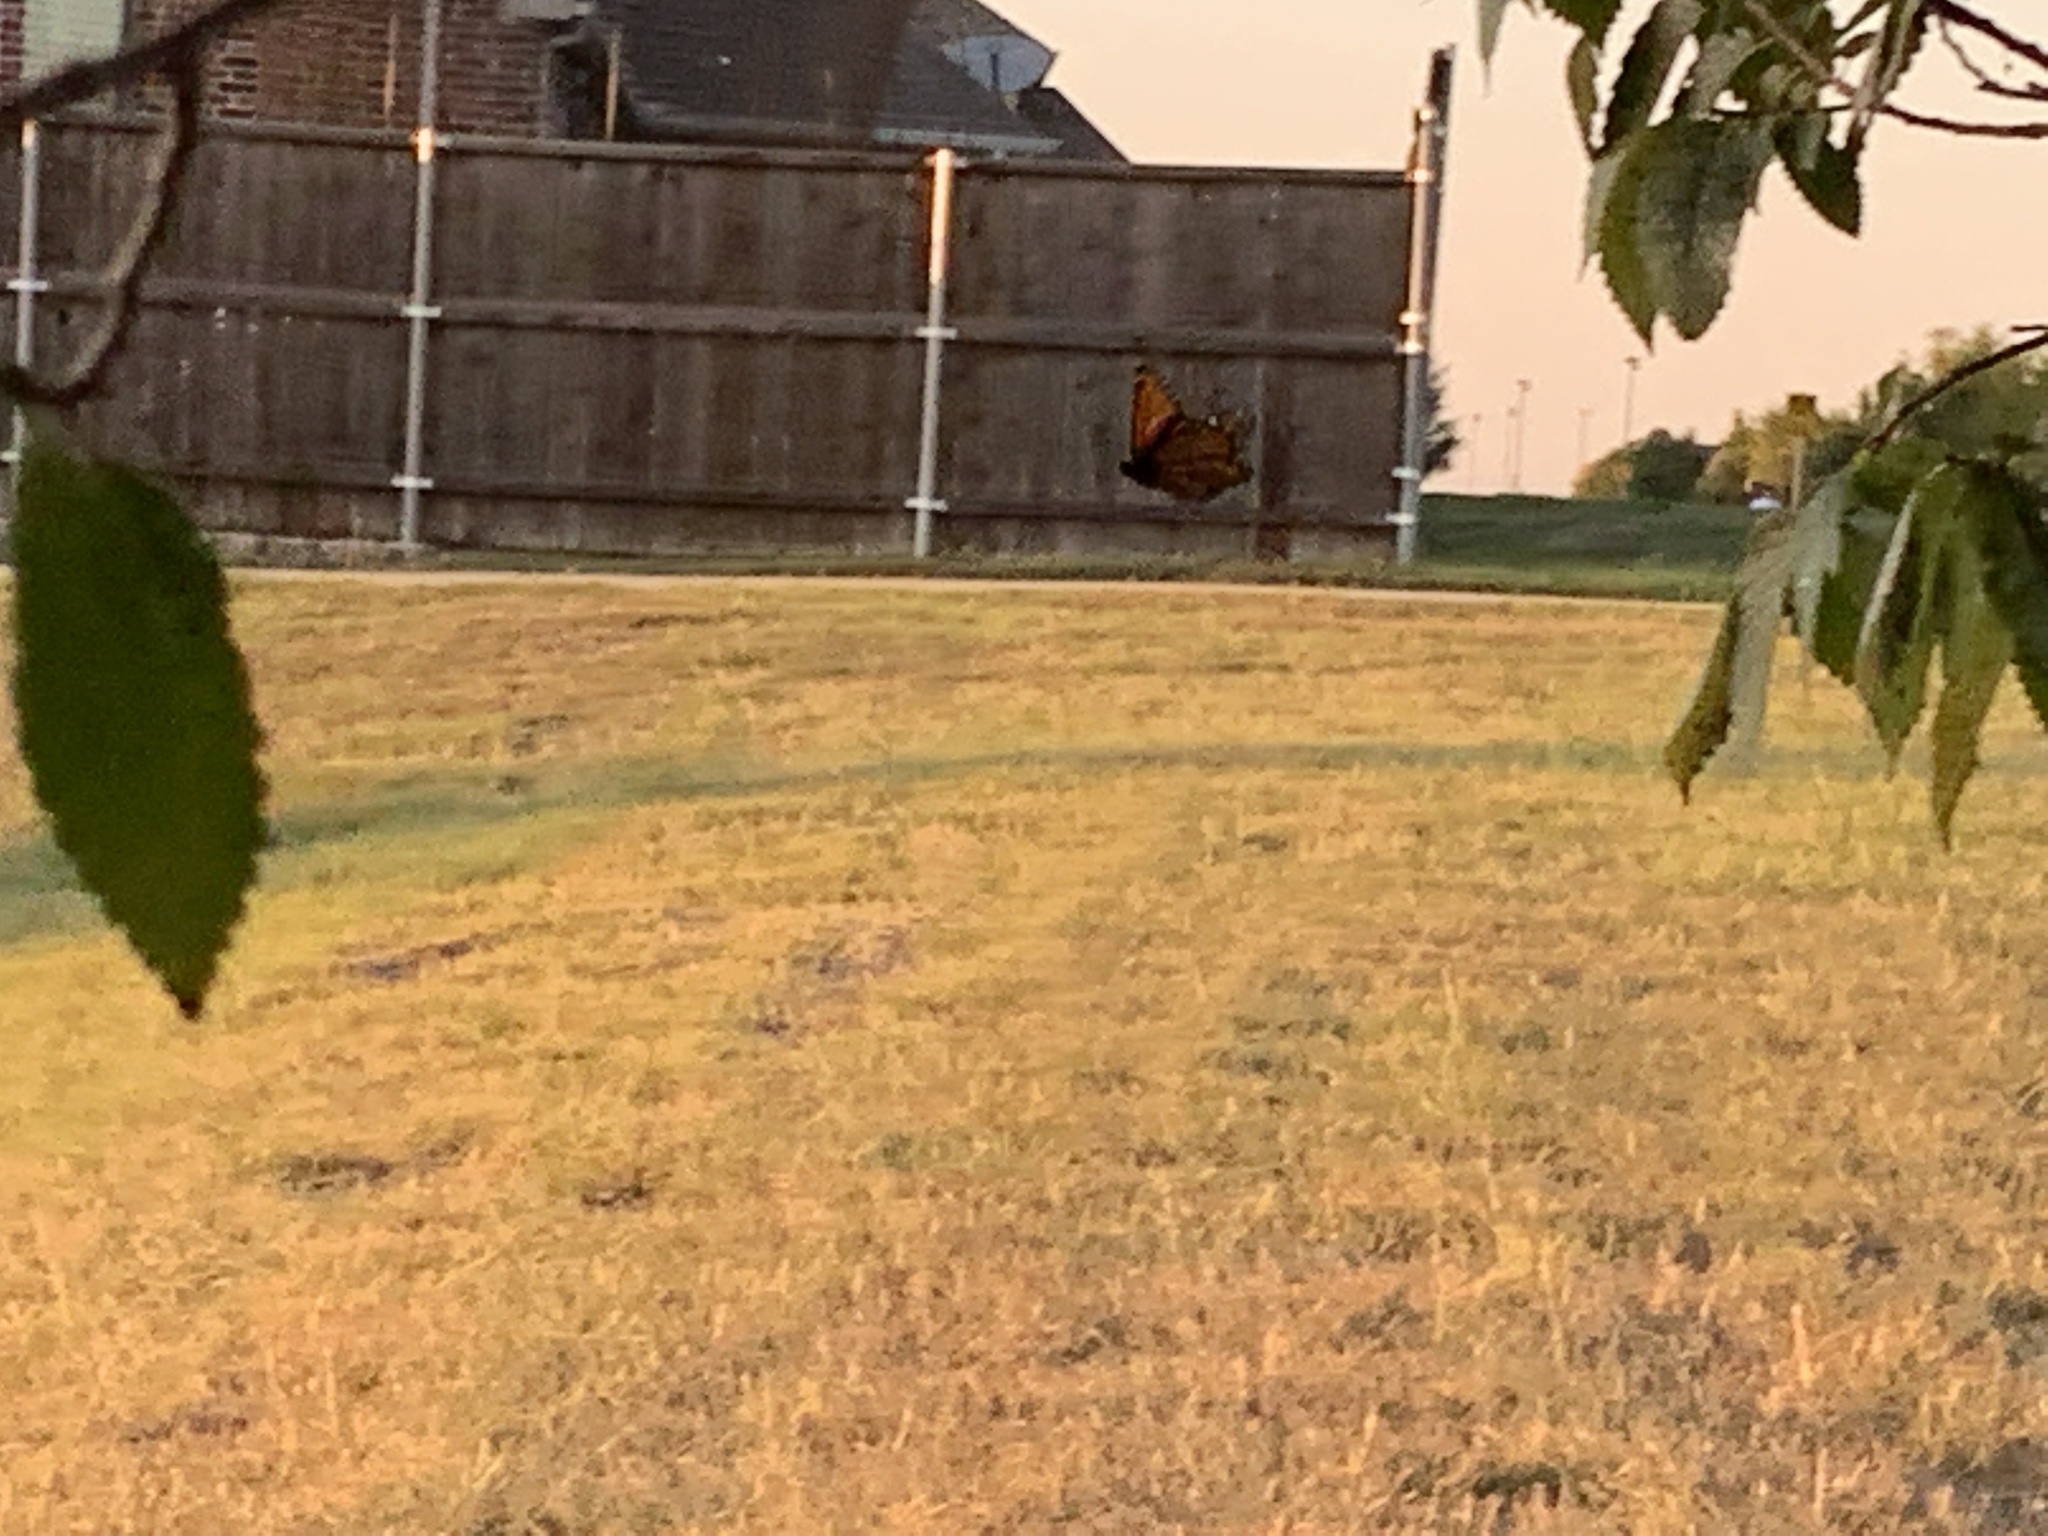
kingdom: Animalia
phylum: Arthropoda
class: Insecta
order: Lepidoptera
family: Nymphalidae
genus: Danaus
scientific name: Danaus plexippus
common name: Monarch
